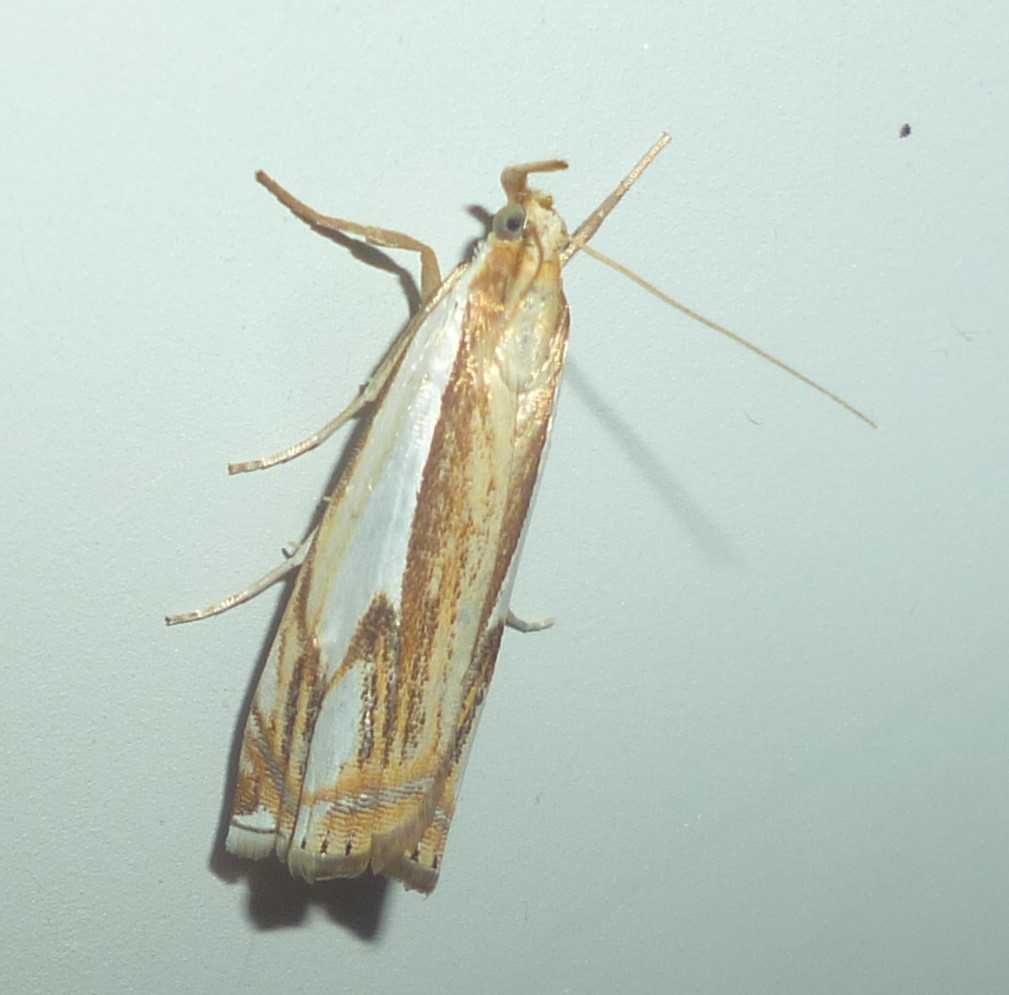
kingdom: Animalia
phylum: Arthropoda
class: Insecta
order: Lepidoptera
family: Crambidae
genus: Crambus
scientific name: Crambus agitatellus
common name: Double-banded grass-veneer
